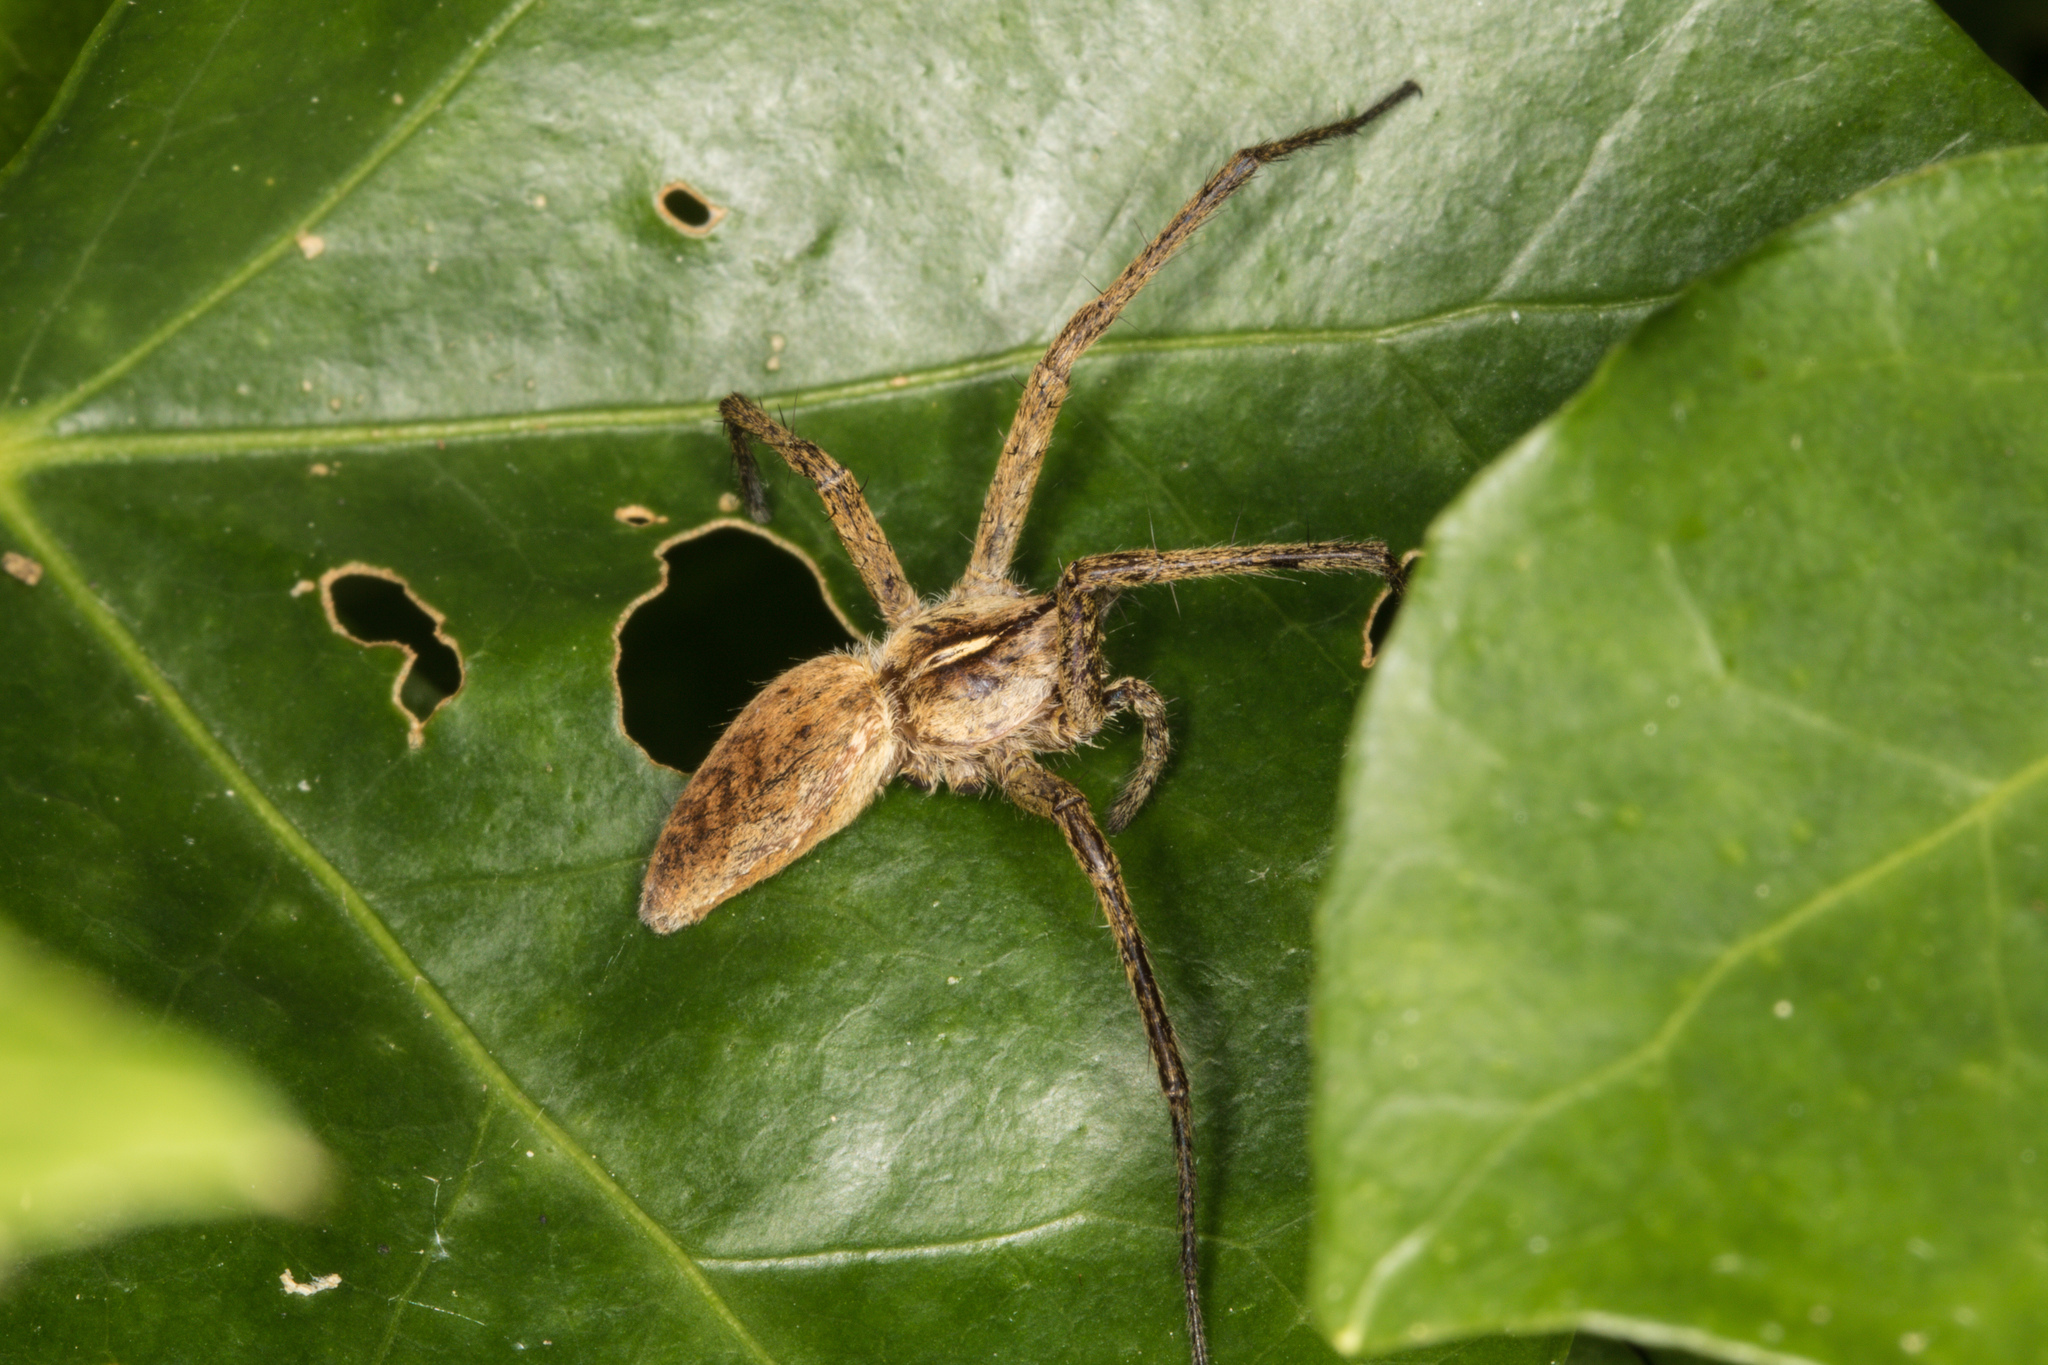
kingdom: Animalia
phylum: Arthropoda
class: Arachnida
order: Araneae
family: Pisauridae
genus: Pisaura
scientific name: Pisaura mirabilis
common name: Tent spider
